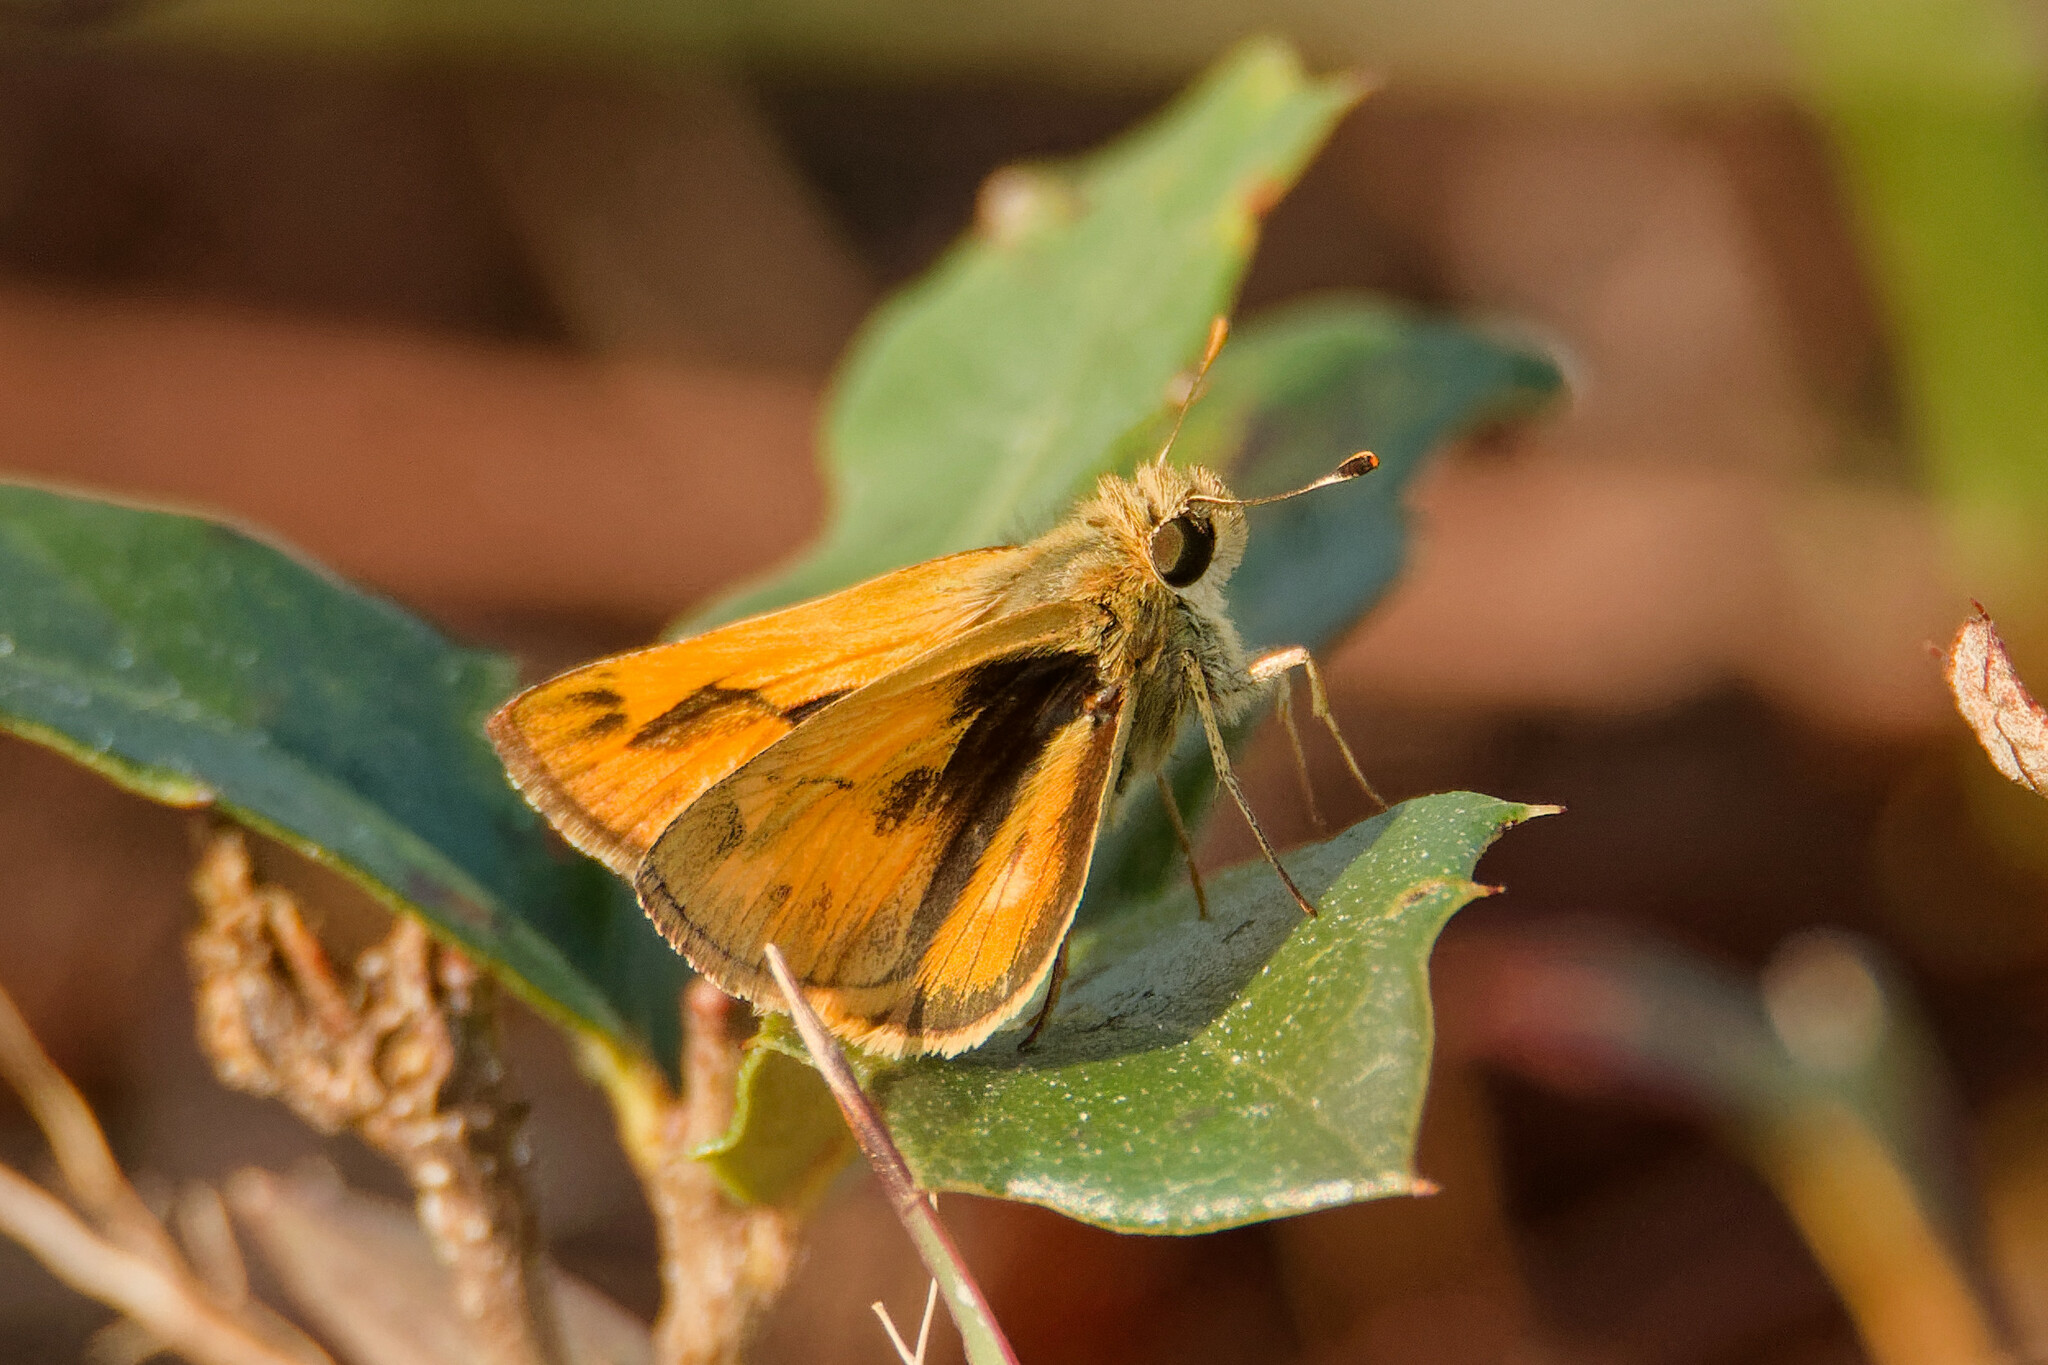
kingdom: Animalia
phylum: Arthropoda
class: Insecta
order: Lepidoptera
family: Hesperiidae
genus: Polites
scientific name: Polites vibex
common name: Whirlabout
